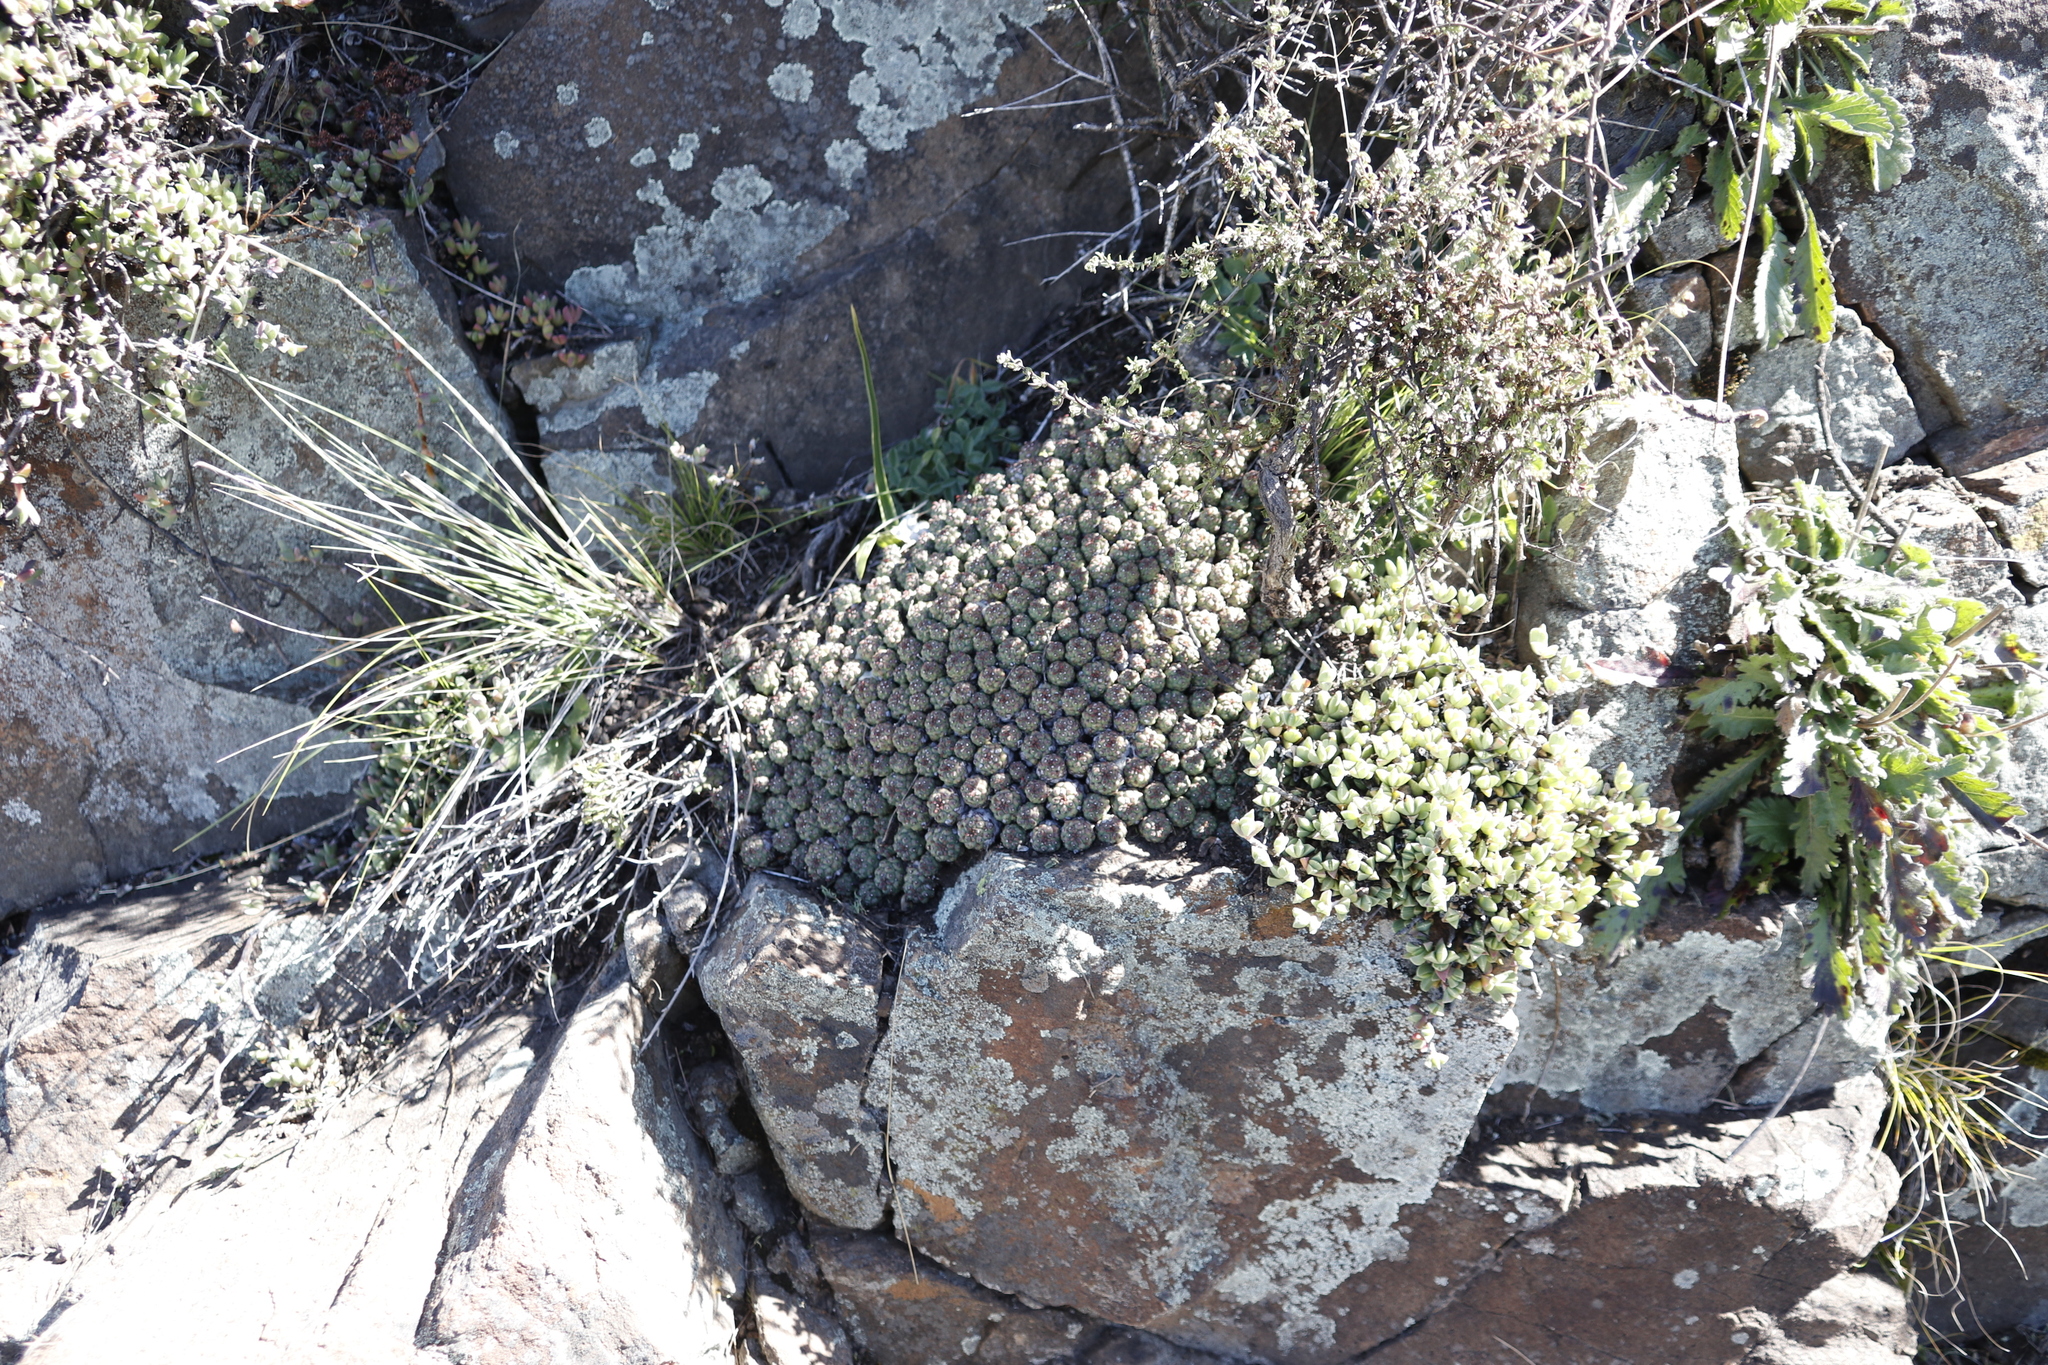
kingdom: Plantae
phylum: Tracheophyta
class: Magnoliopsida
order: Malpighiales
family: Euphorbiaceae
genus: Euphorbia
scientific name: Euphorbia clavarioides
